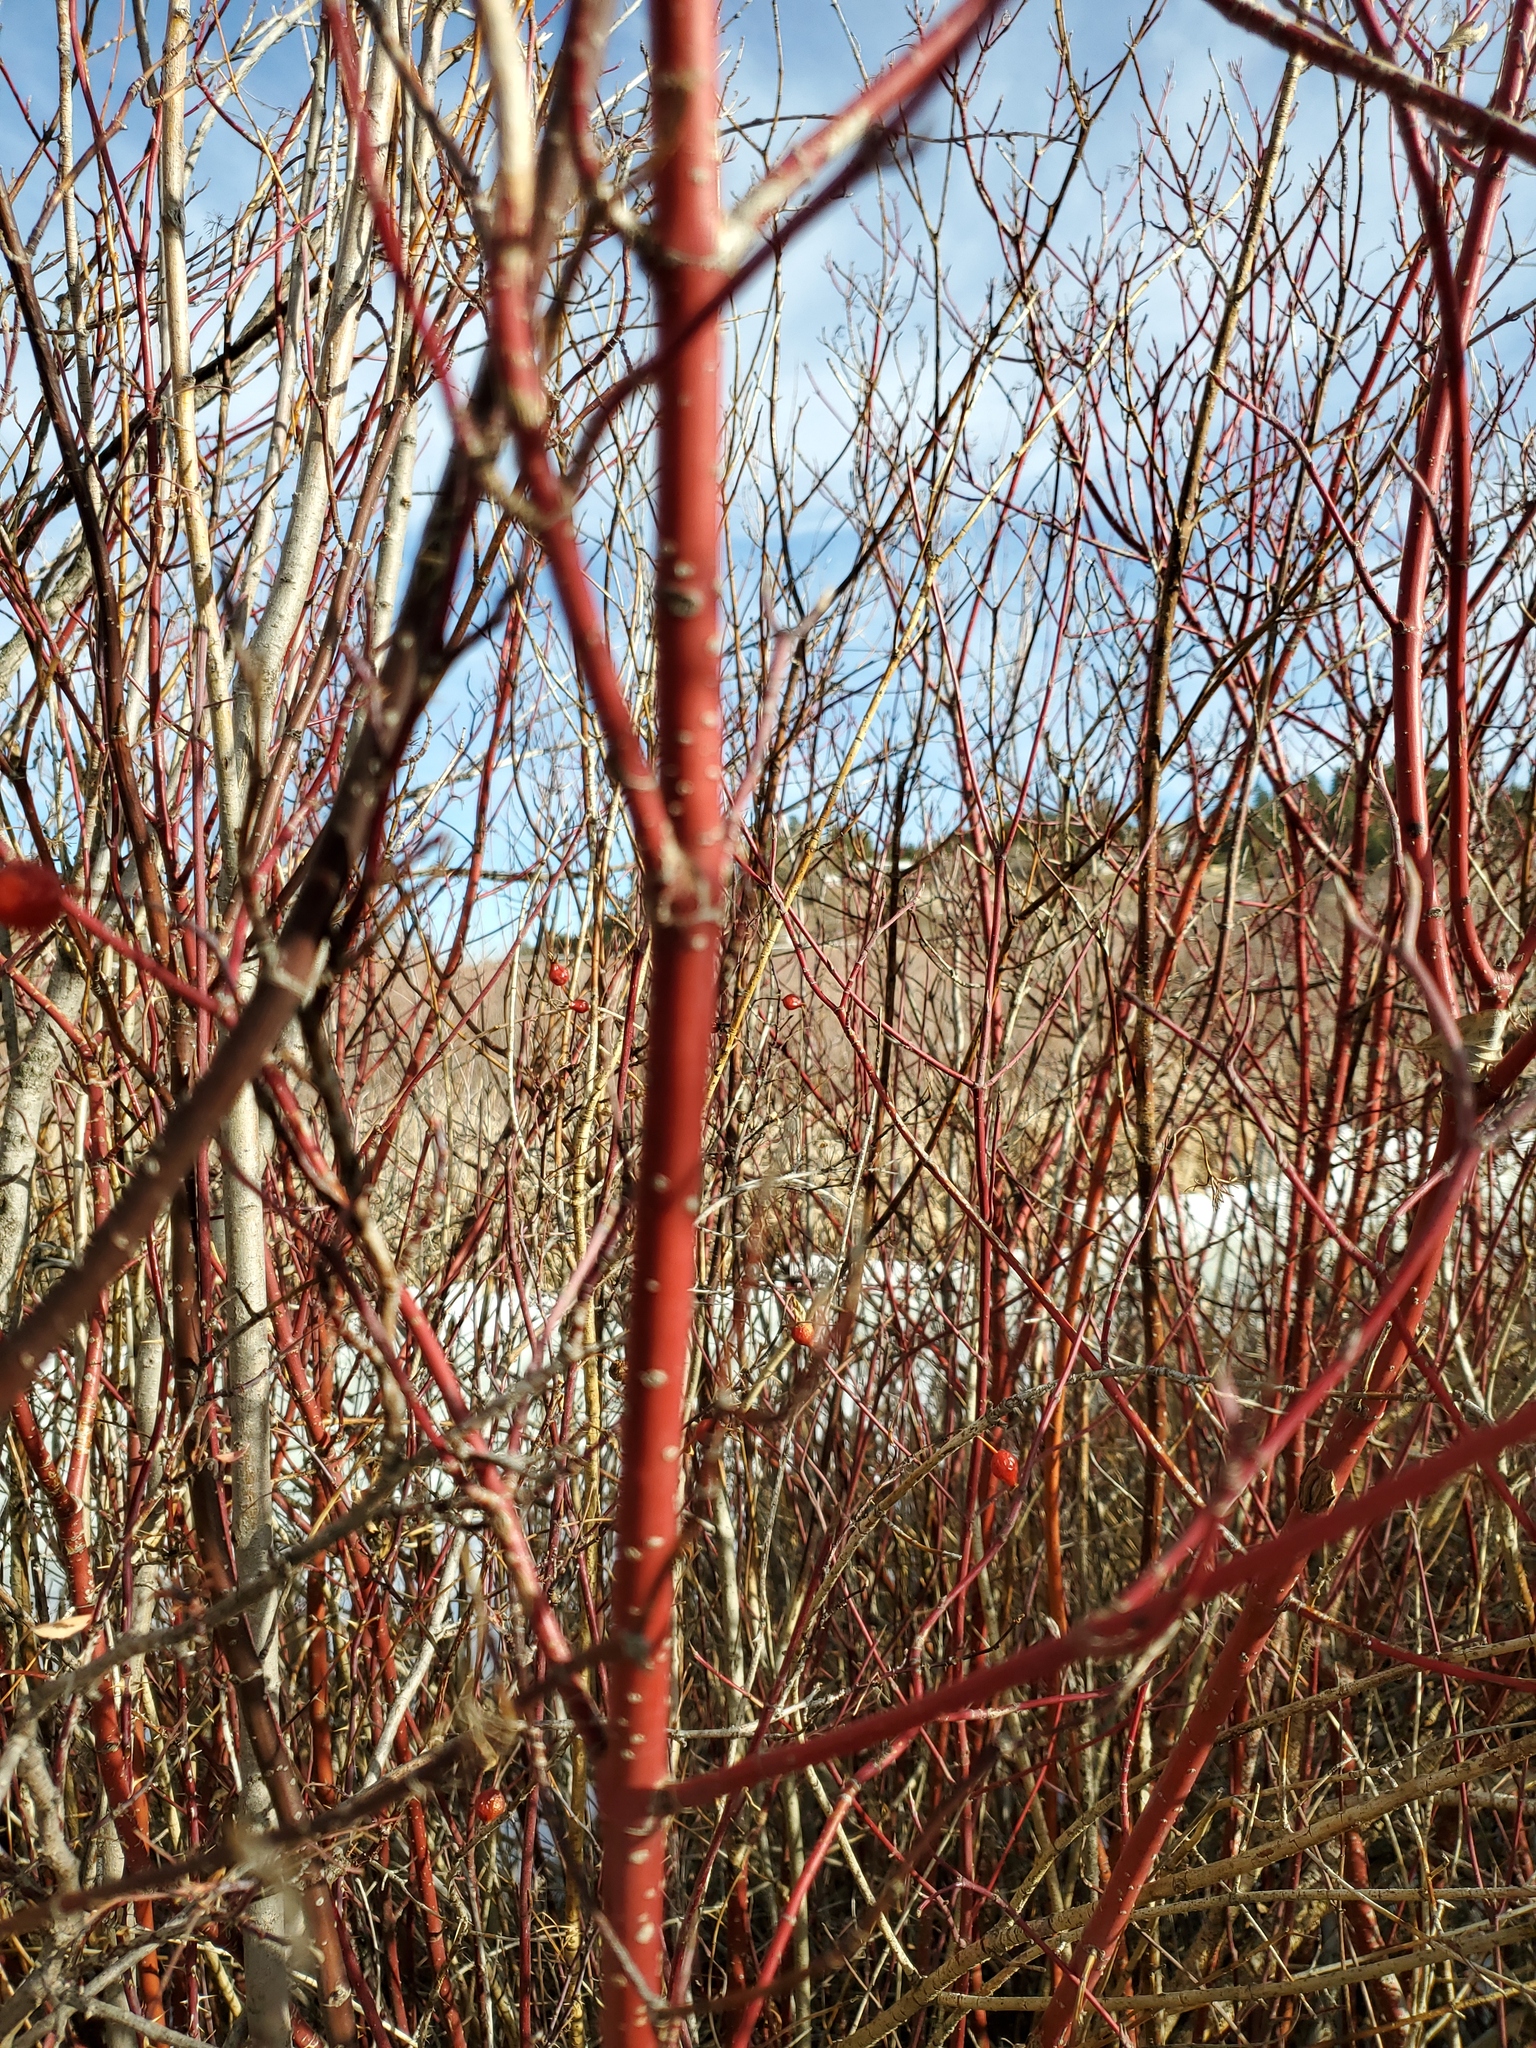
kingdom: Plantae
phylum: Tracheophyta
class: Magnoliopsida
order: Cornales
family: Cornaceae
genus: Cornus
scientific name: Cornus sericea
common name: Red-osier dogwood
